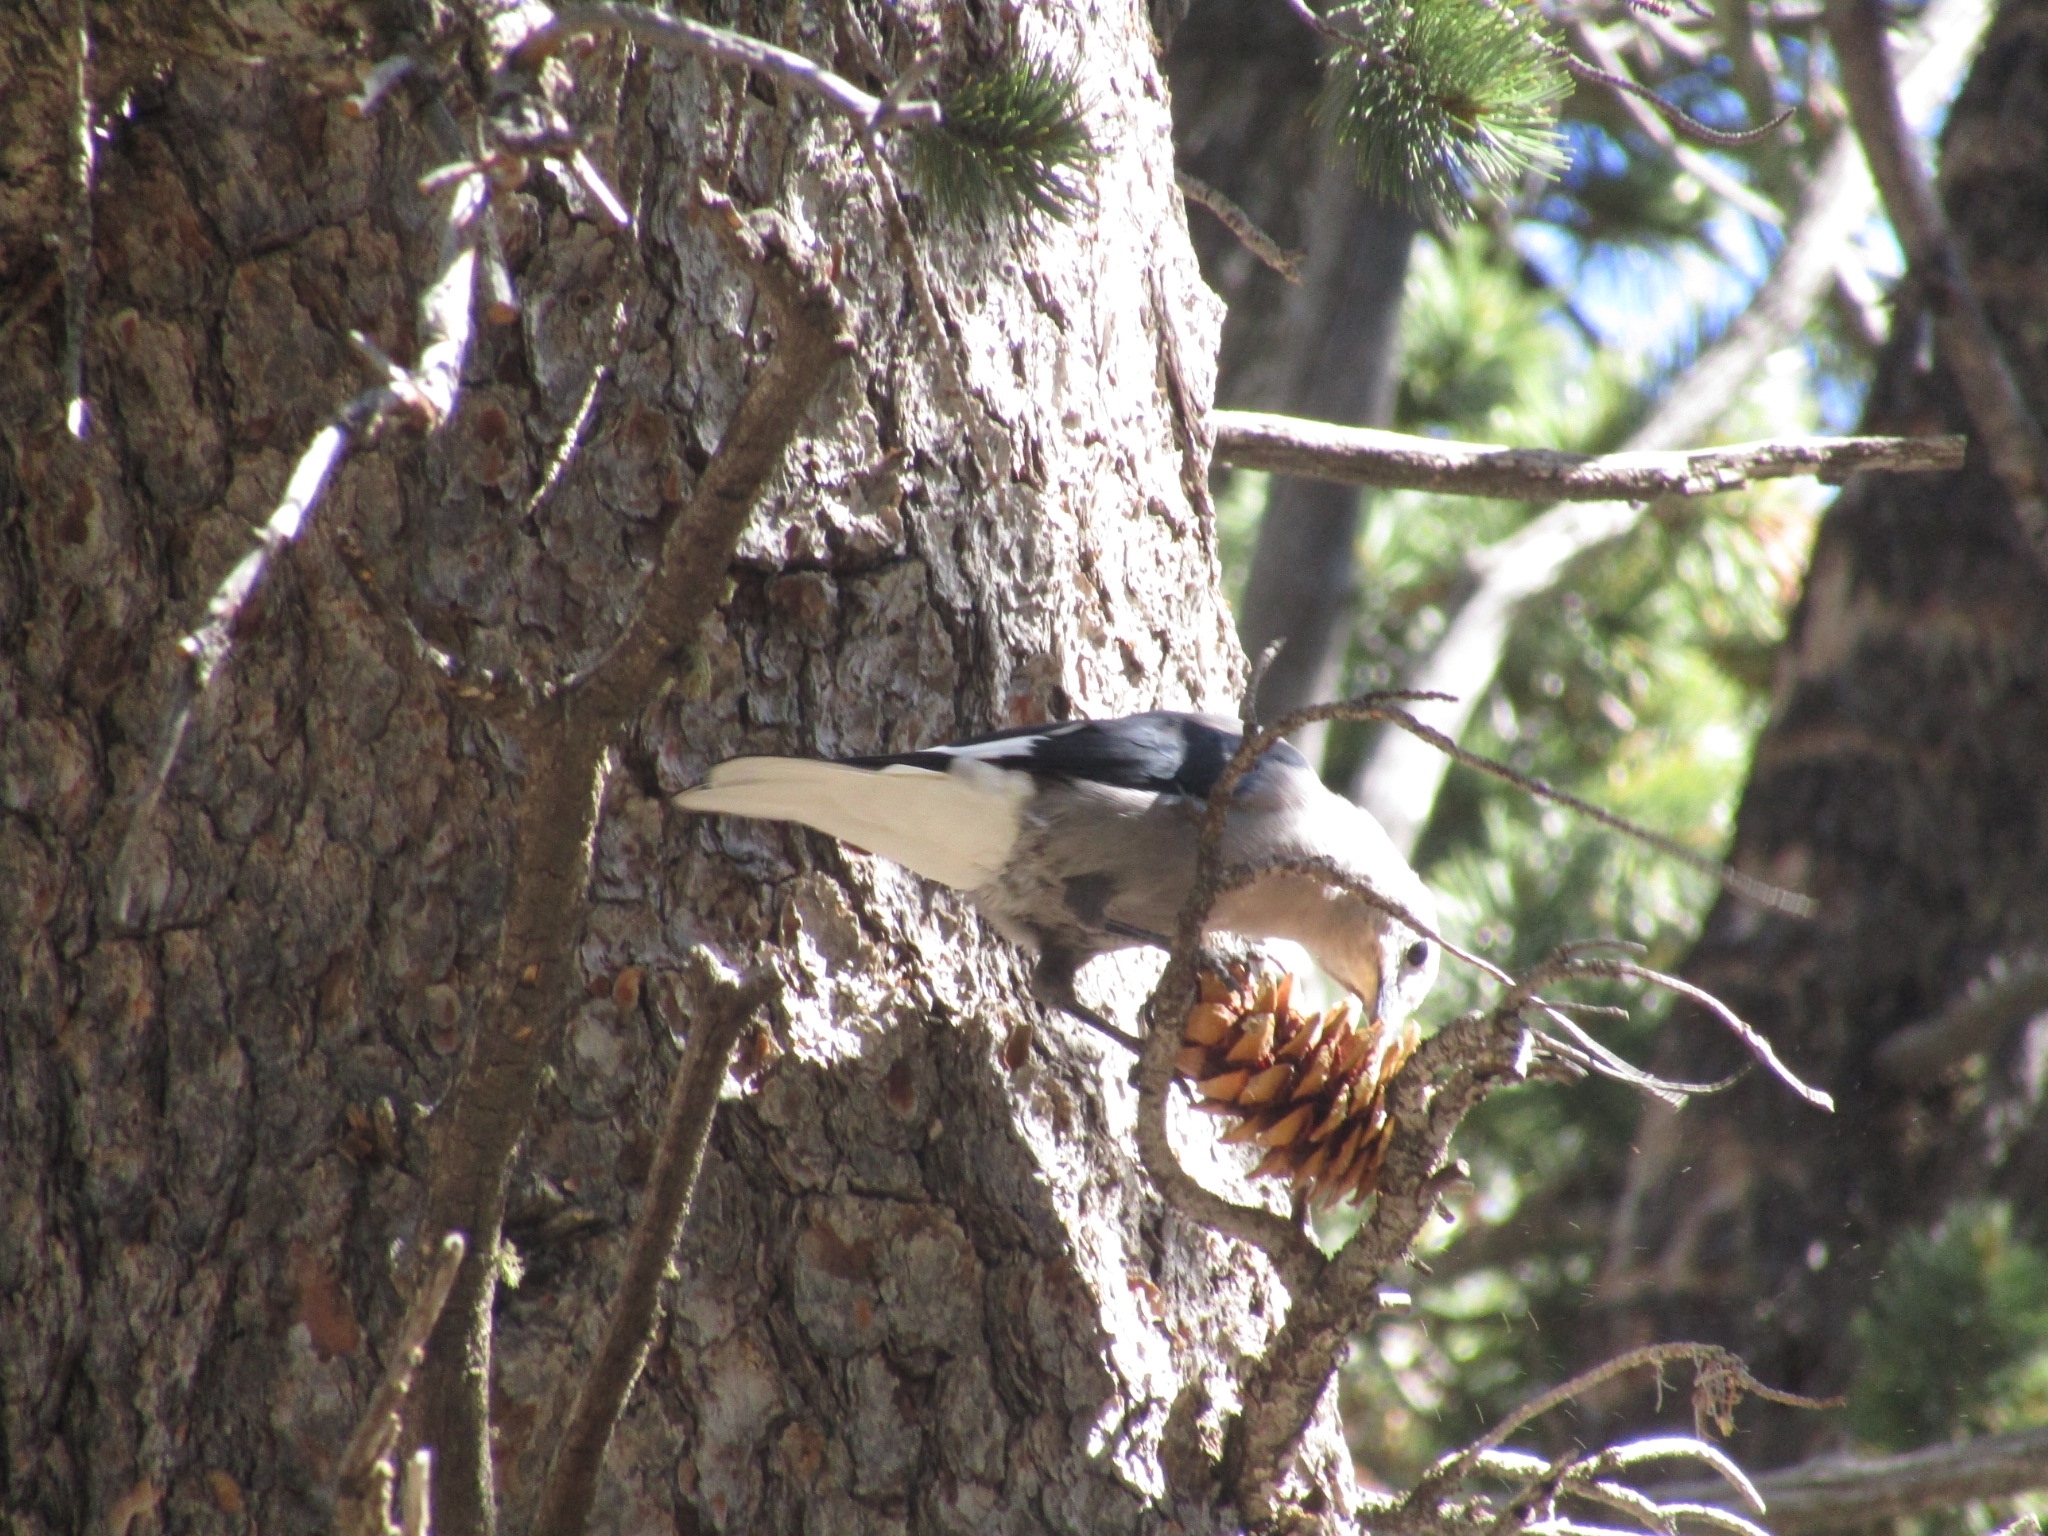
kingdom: Animalia
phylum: Chordata
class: Aves
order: Passeriformes
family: Corvidae
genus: Nucifraga
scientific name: Nucifraga columbiana
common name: Clark's nutcracker
